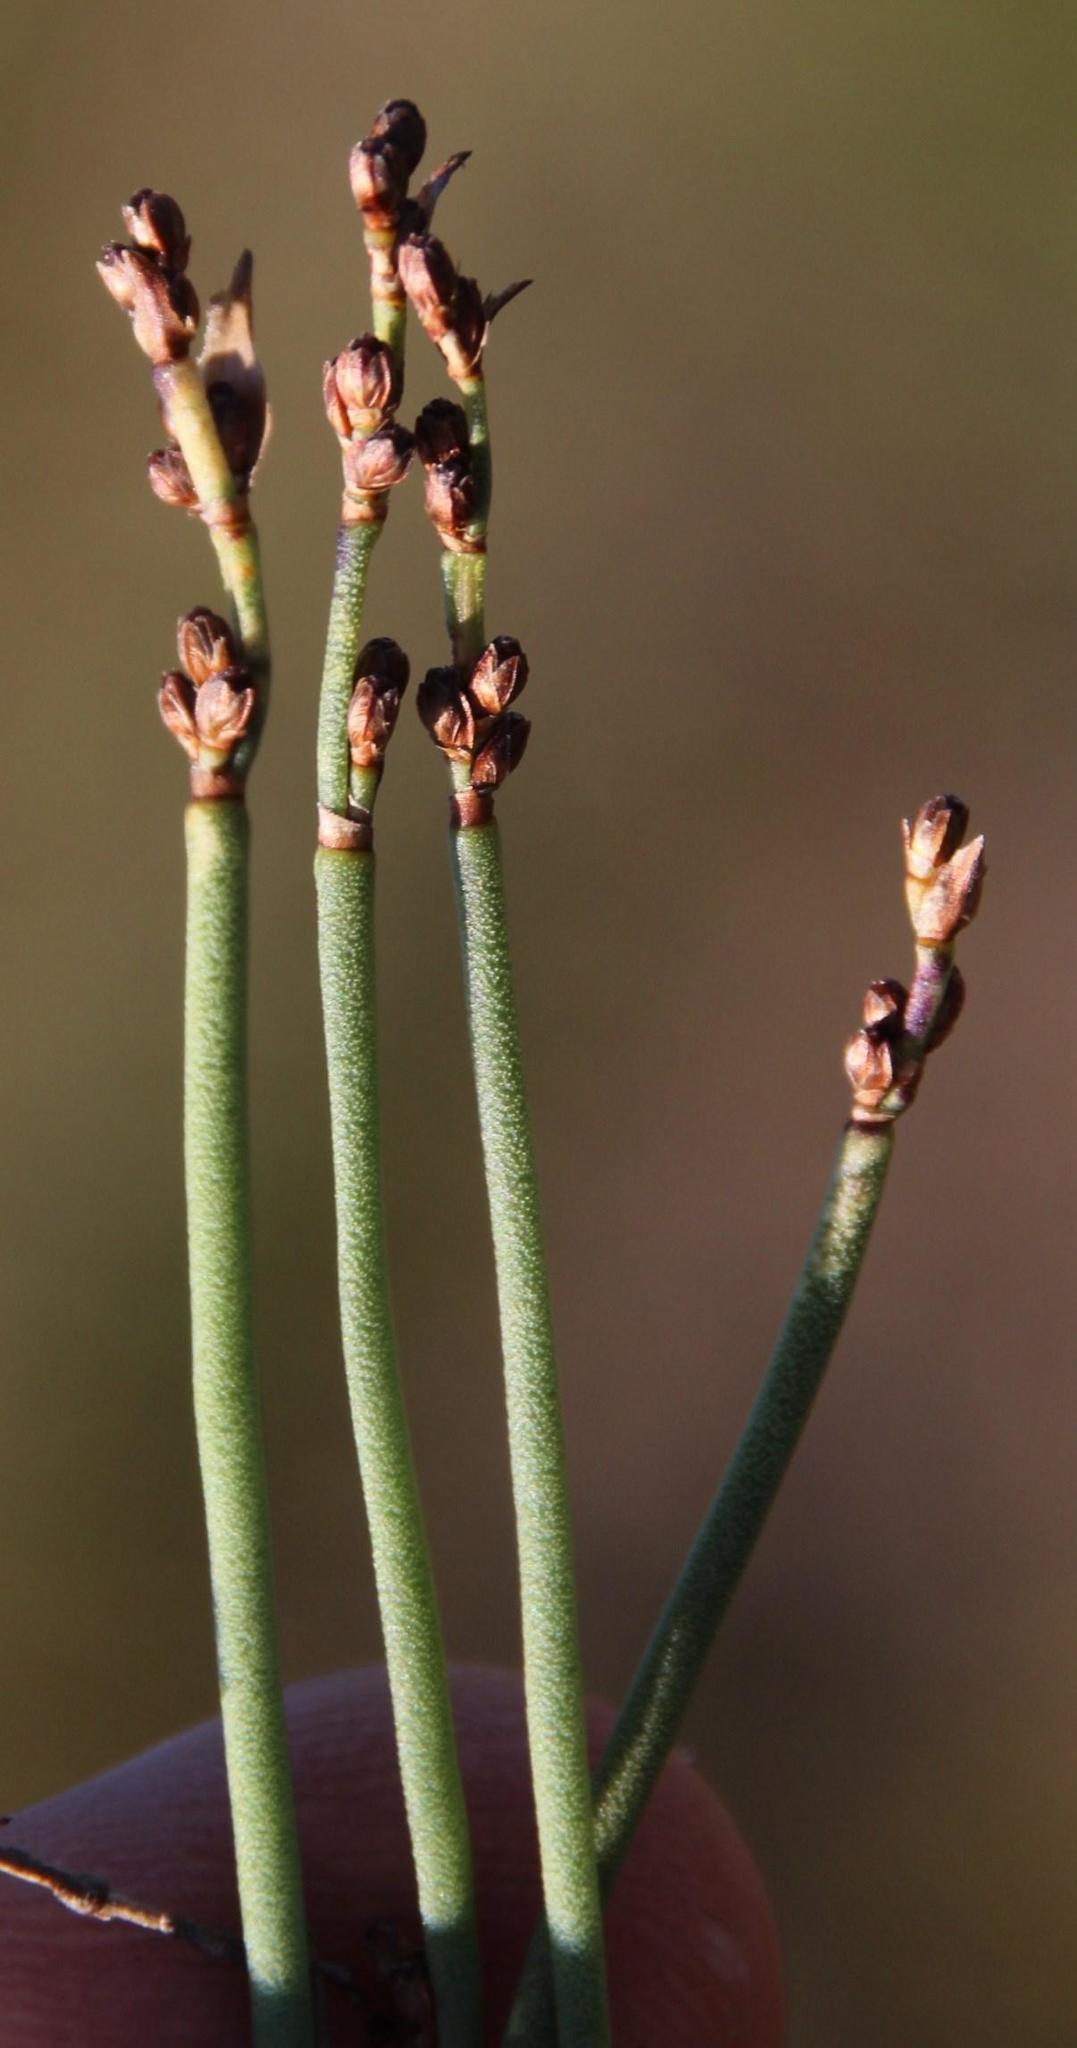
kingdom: Plantae
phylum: Tracheophyta
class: Liliopsida
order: Poales
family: Restionaceae
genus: Elegia
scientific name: Elegia squamosa
